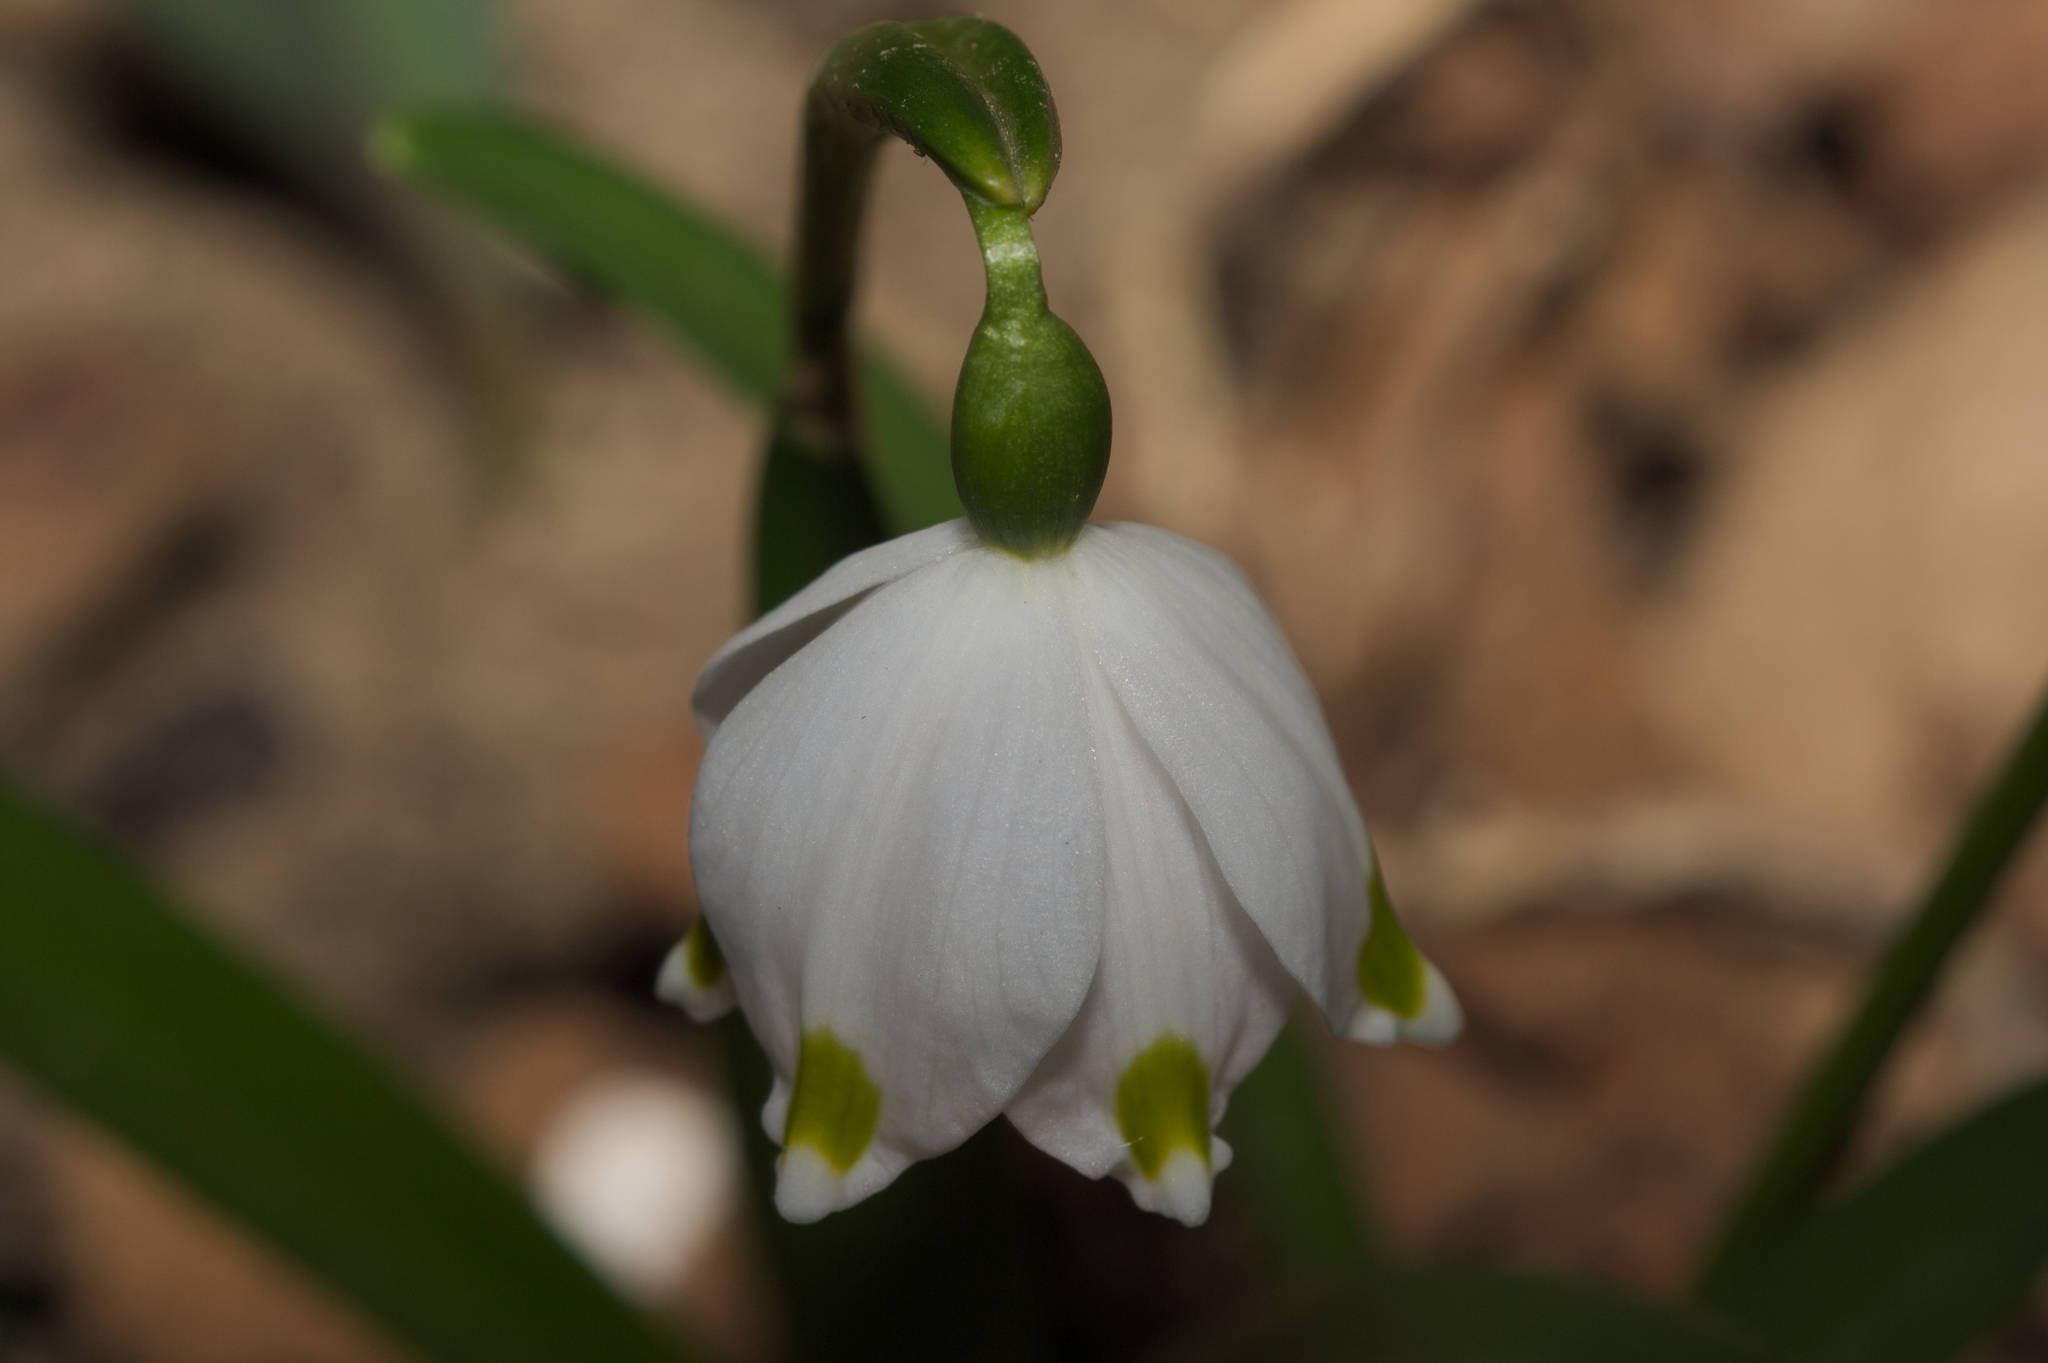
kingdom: Plantae
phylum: Tracheophyta
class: Liliopsida
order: Asparagales
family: Amaryllidaceae
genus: Leucojum
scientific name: Leucojum vernum
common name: Spring snowflake
